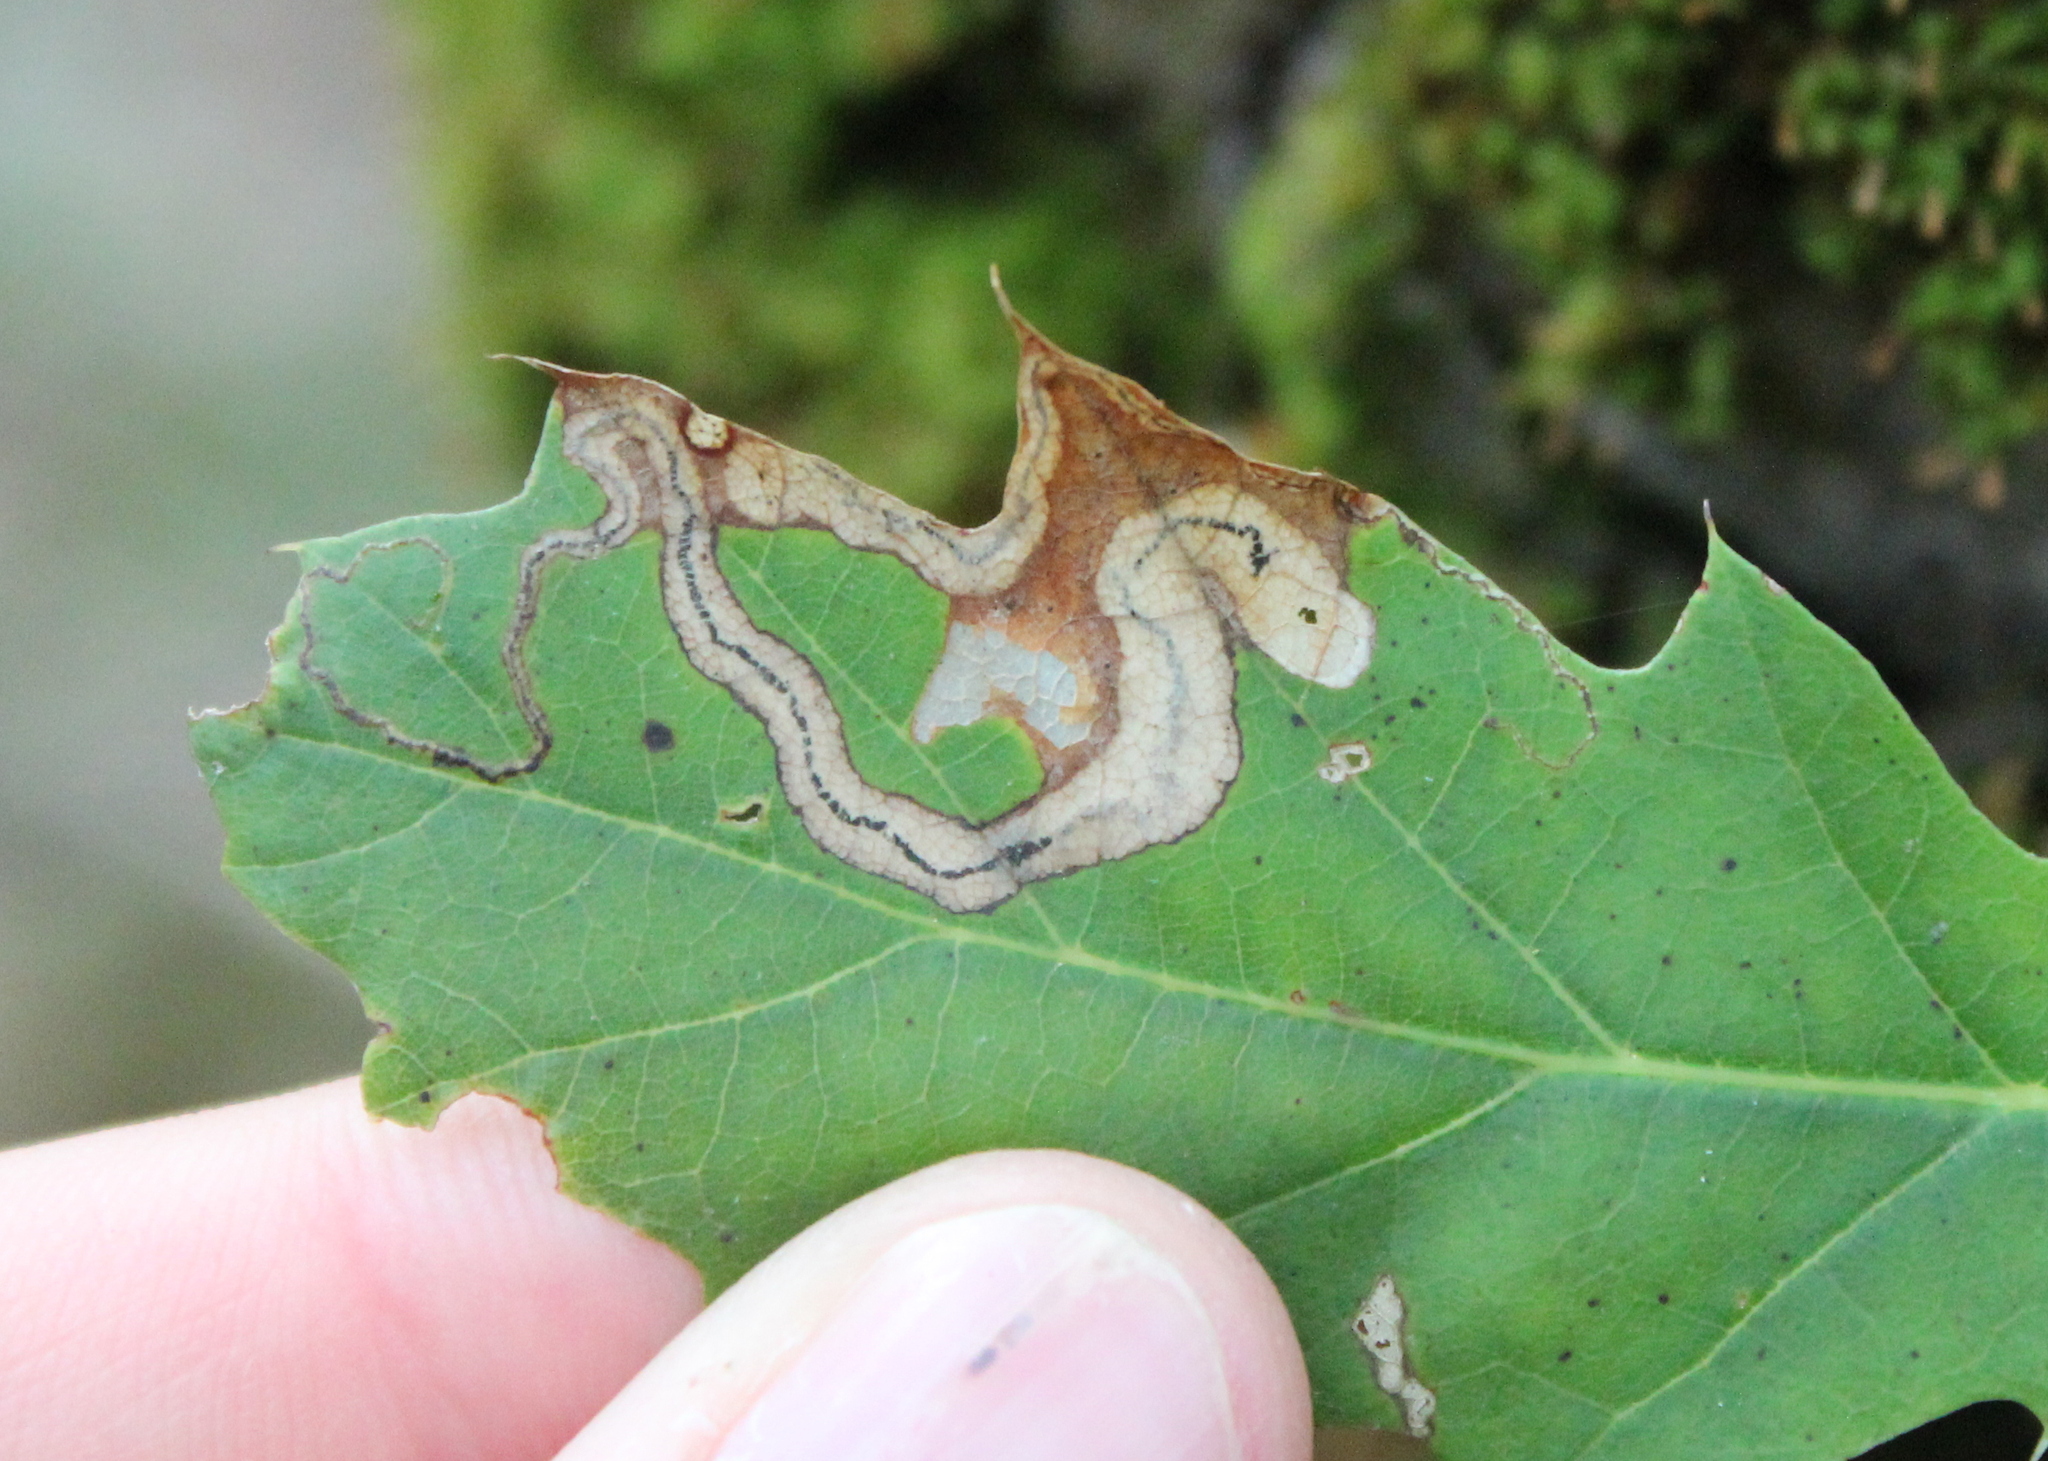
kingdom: Animalia
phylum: Arthropoda
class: Insecta
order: Lepidoptera
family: Nepticulidae
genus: Stigmella
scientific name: Stigmella quercipulchella
